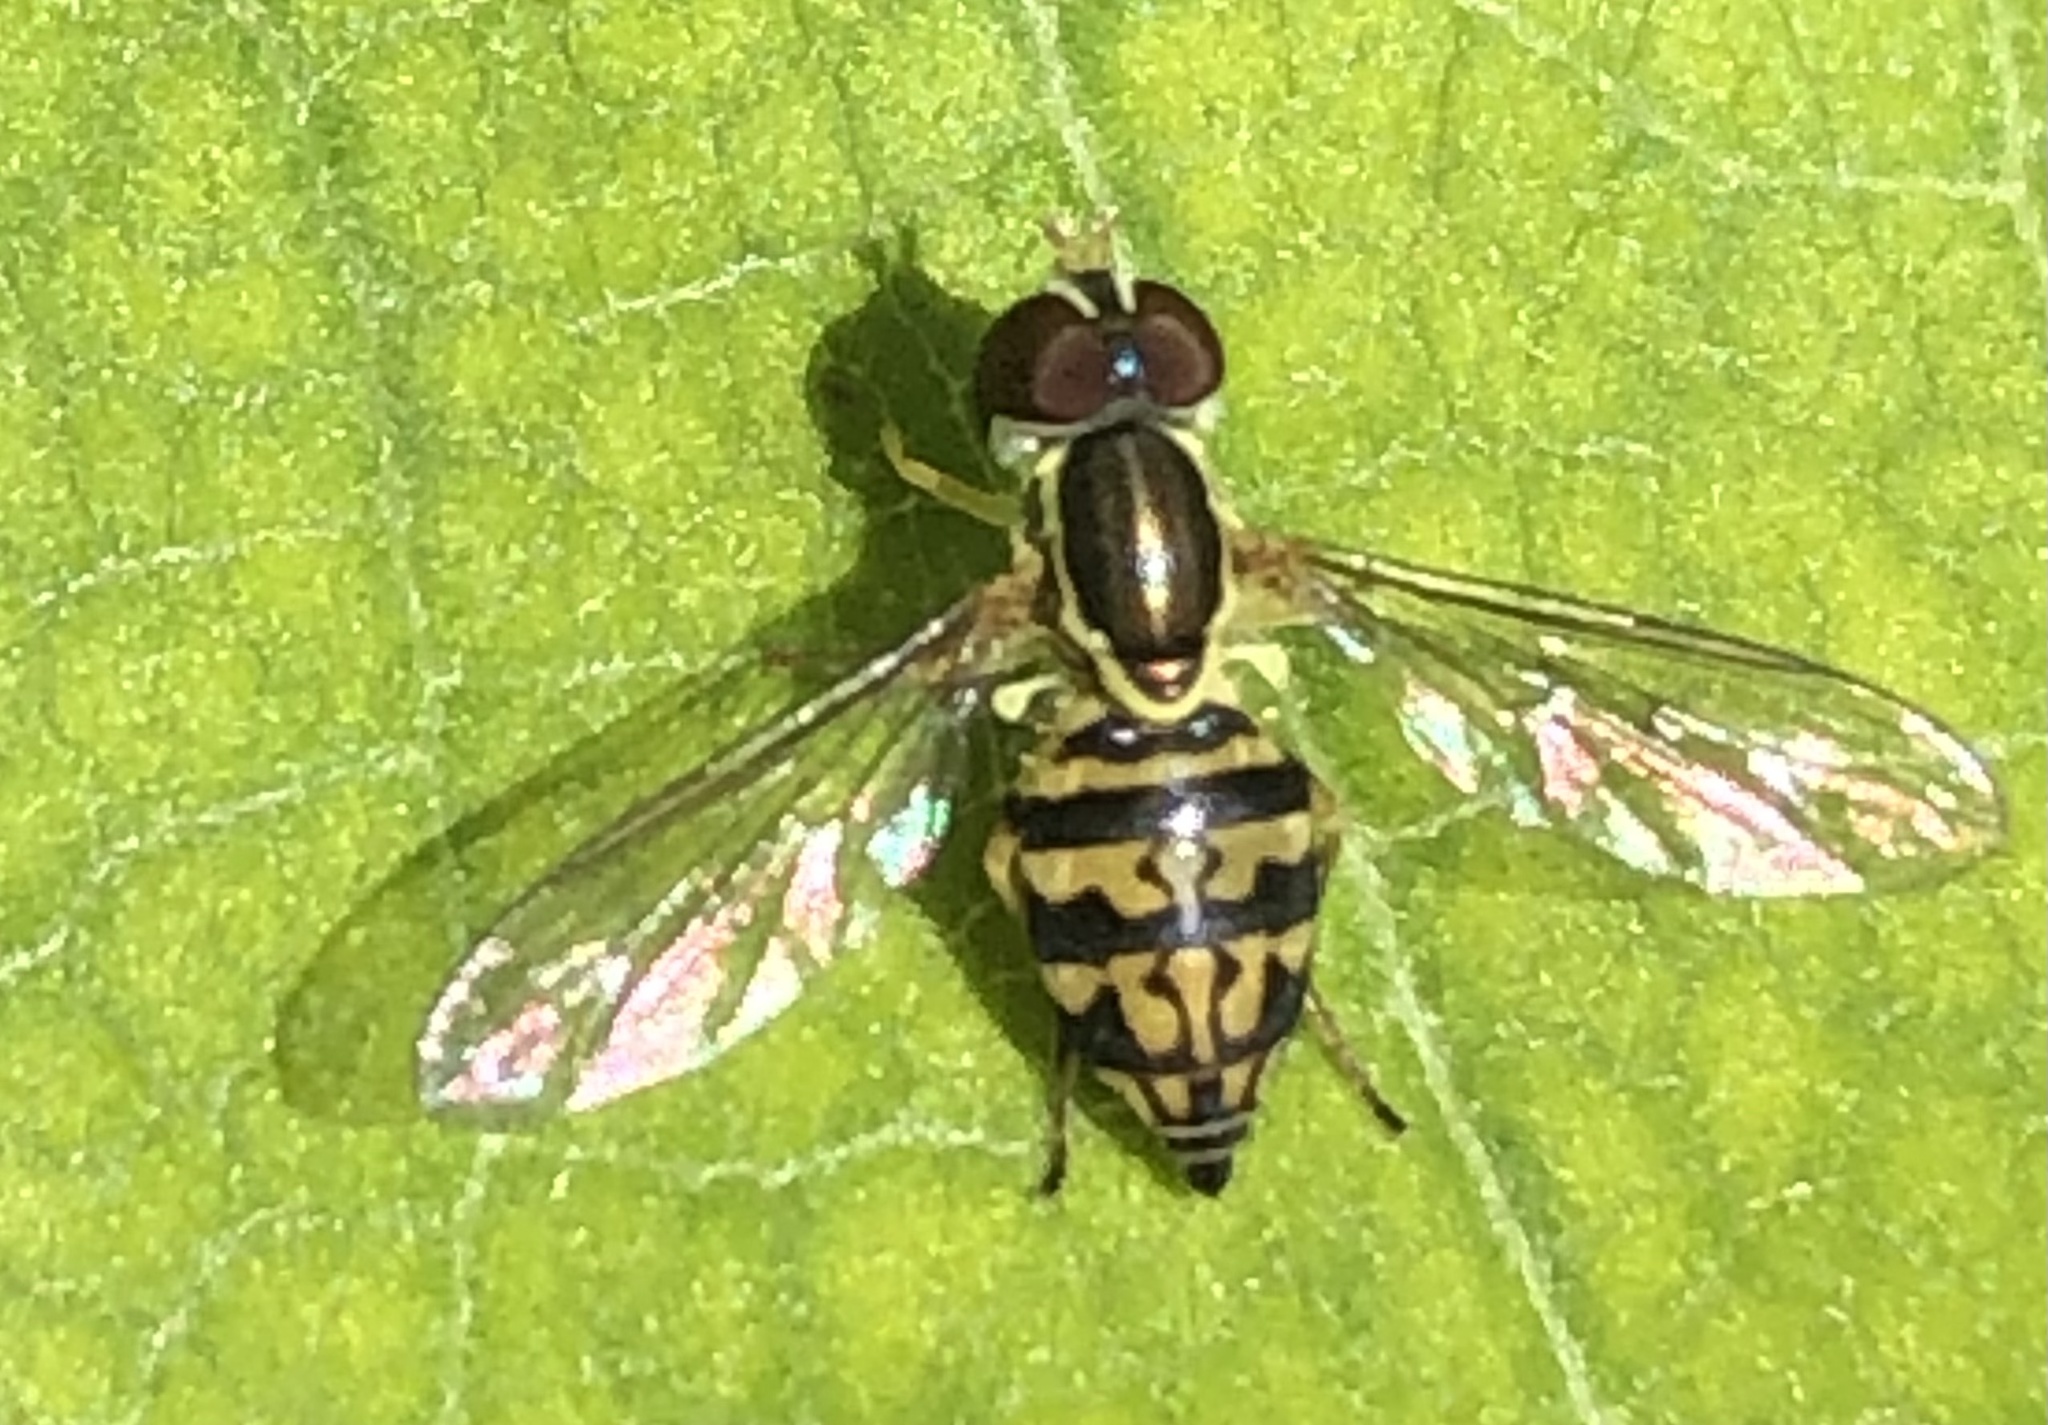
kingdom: Animalia
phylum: Arthropoda
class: Insecta
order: Diptera
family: Syrphidae
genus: Toxomerus
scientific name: Toxomerus geminatus
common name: Eastern calligrapher
